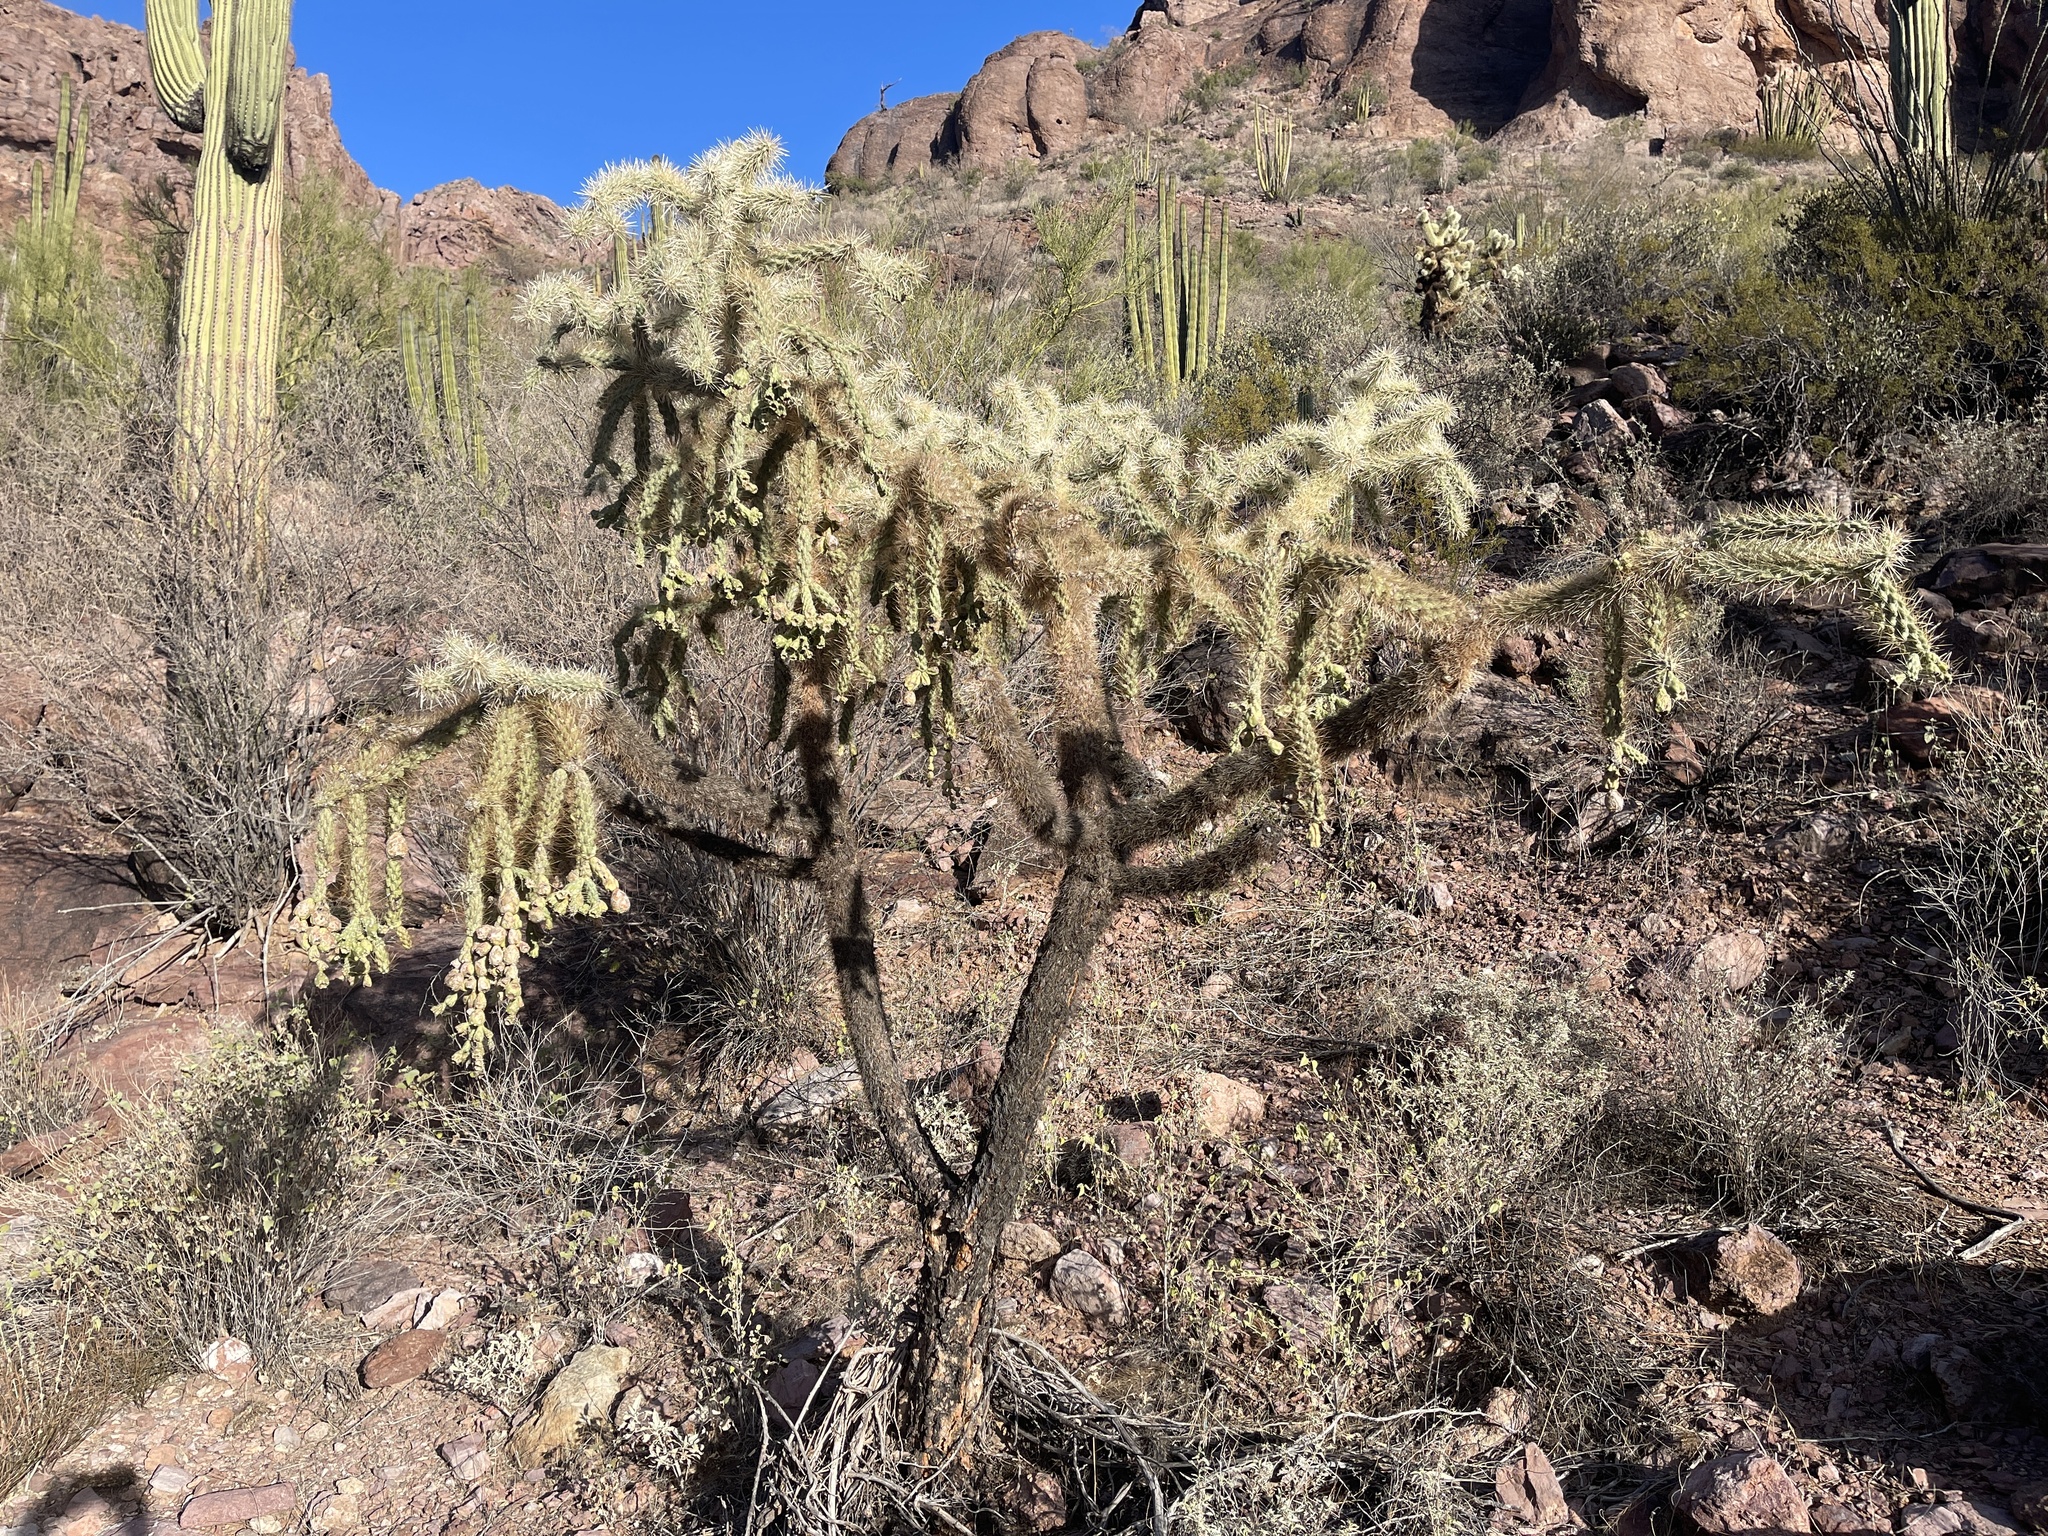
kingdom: Plantae
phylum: Tracheophyta
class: Magnoliopsida
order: Caryophyllales
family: Cactaceae
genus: Cylindropuntia
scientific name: Cylindropuntia fulgida
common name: Jumping cholla
